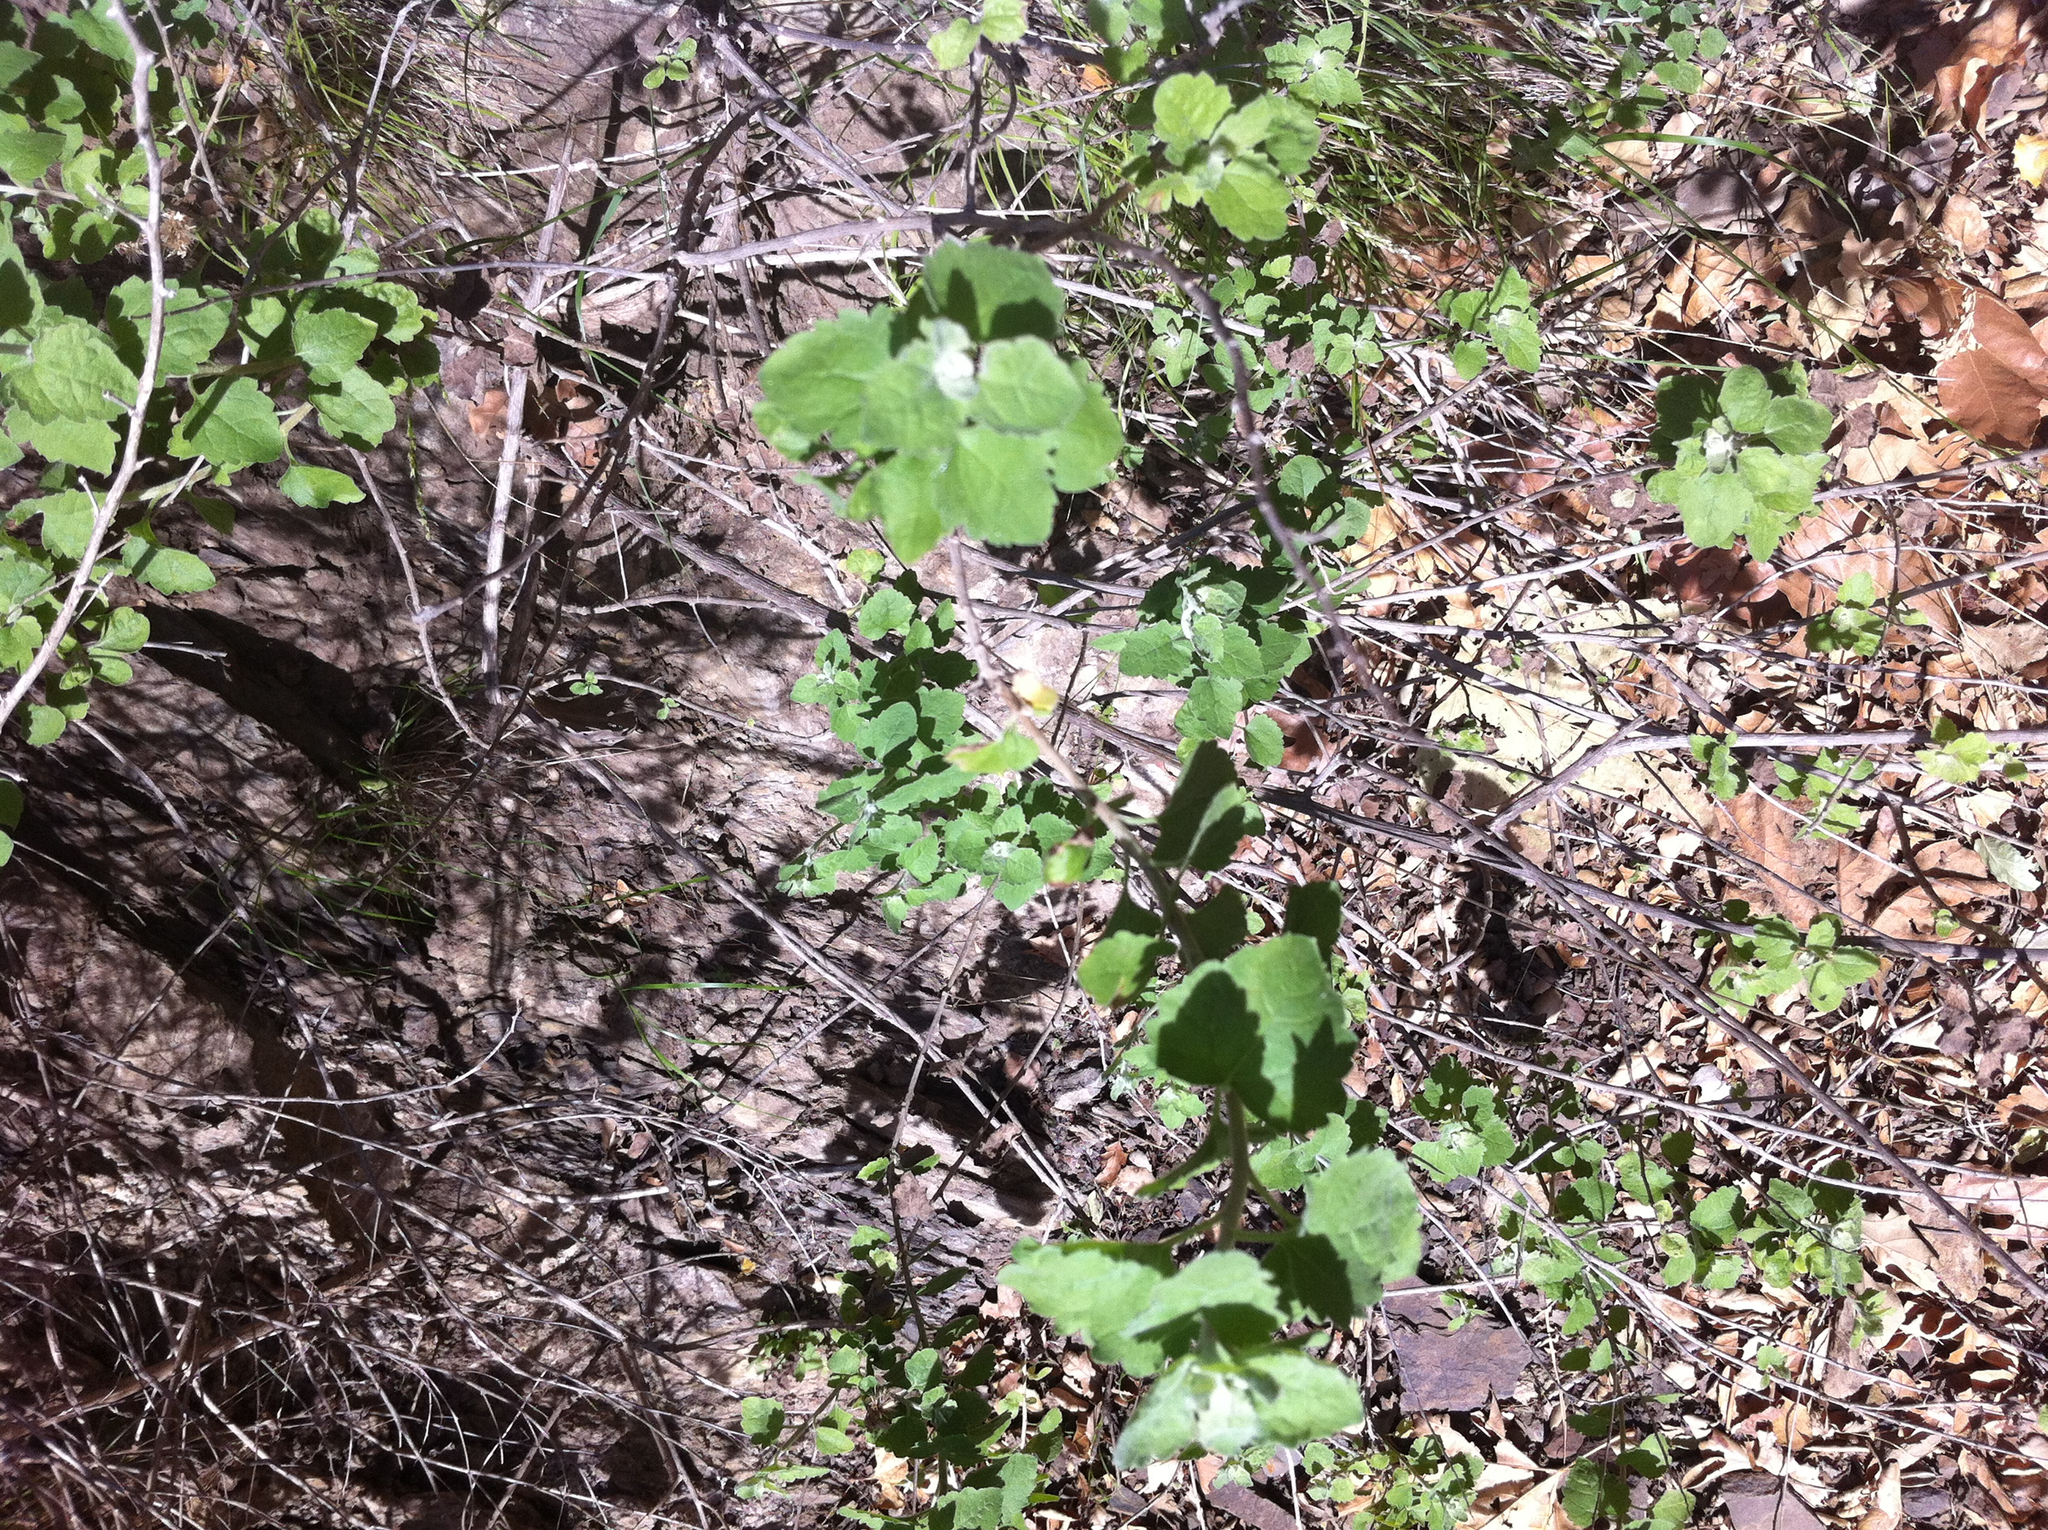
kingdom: Plantae
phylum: Tracheophyta
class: Magnoliopsida
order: Asterales
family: Asteraceae
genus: Brickellia
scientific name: Brickellia californica
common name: California brickellbush
